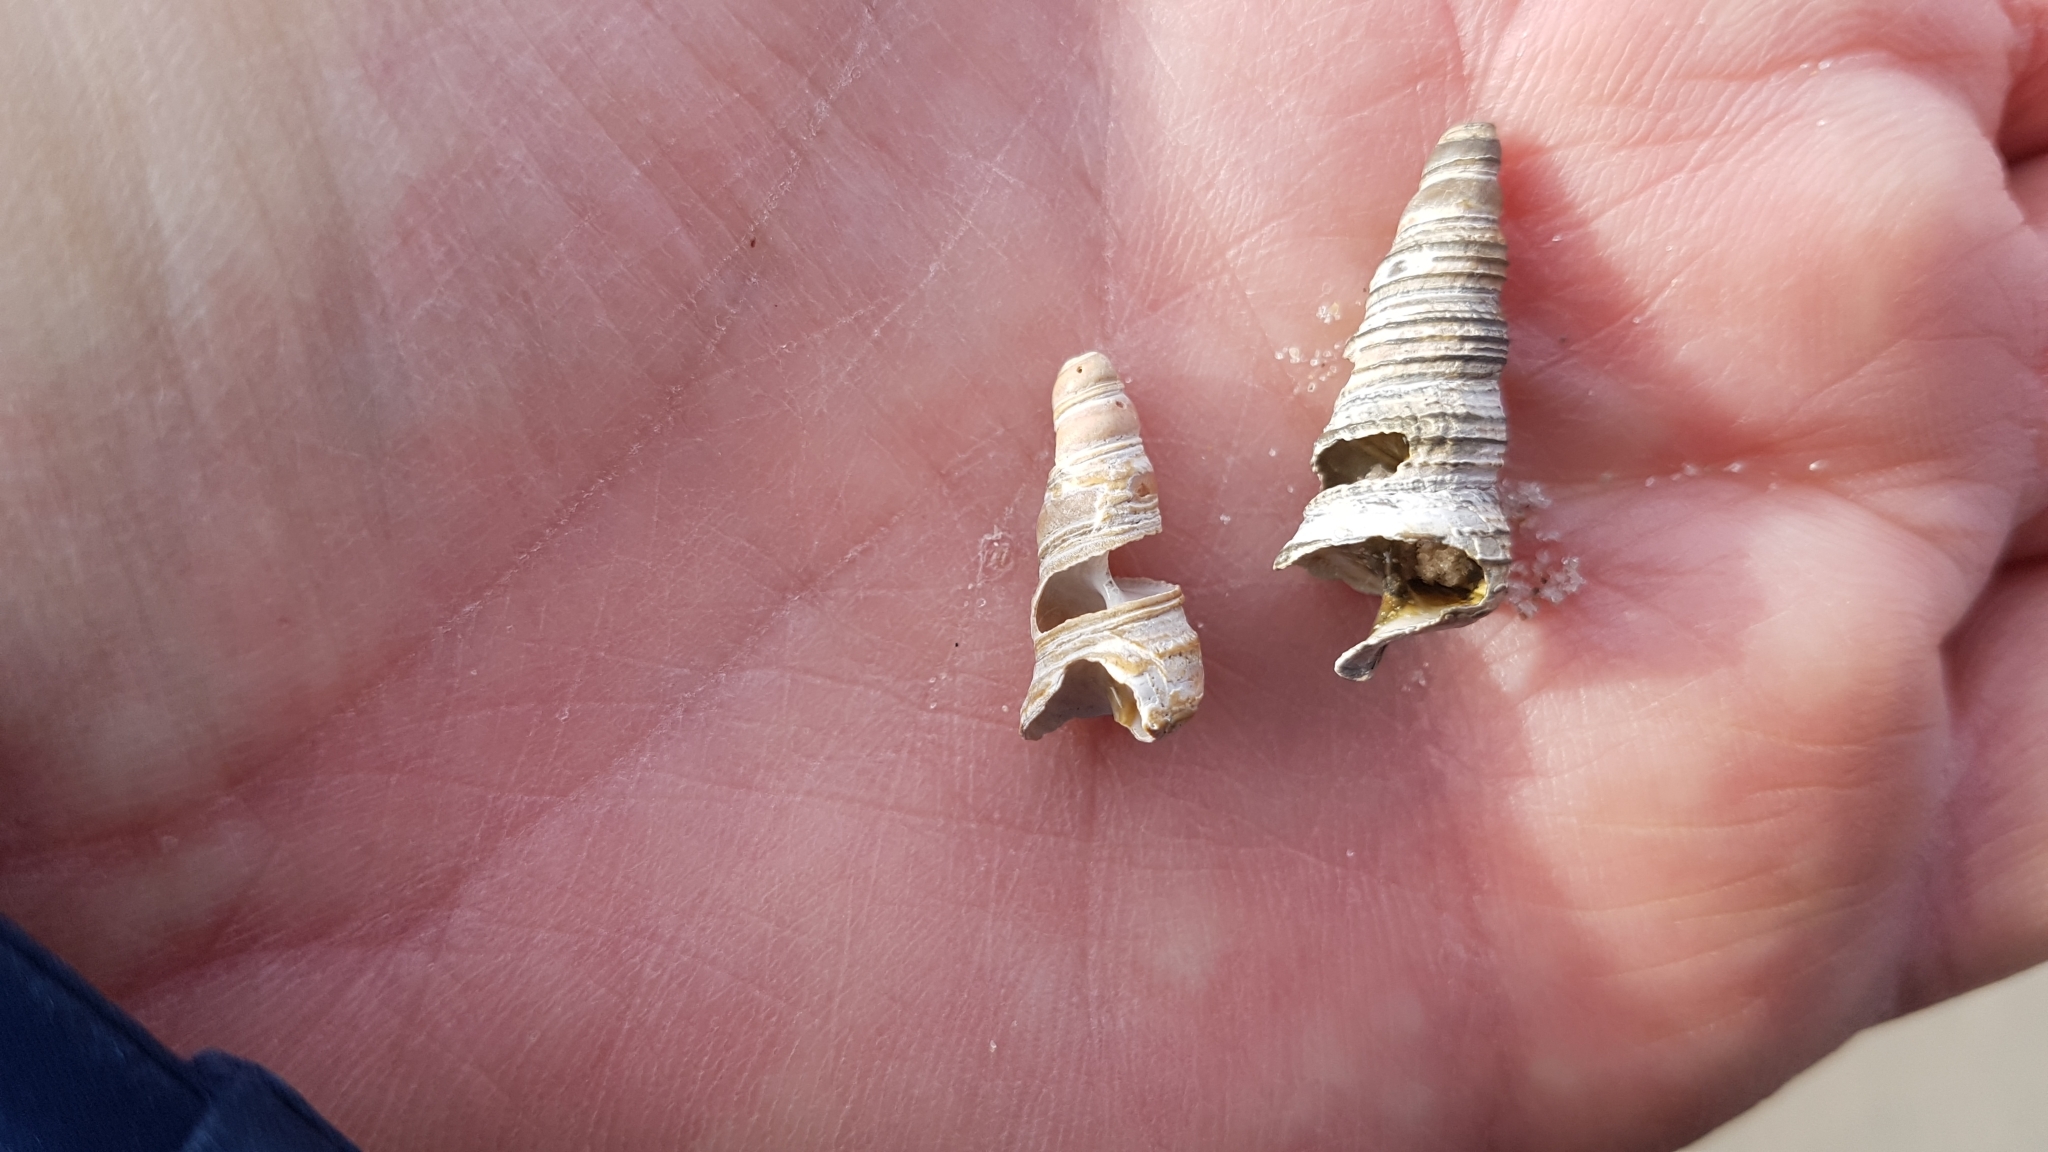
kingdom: Animalia
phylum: Mollusca
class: Gastropoda
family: Turritellidae
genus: Turritellinella
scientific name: Turritellinella tricarinata
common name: Auger shell
